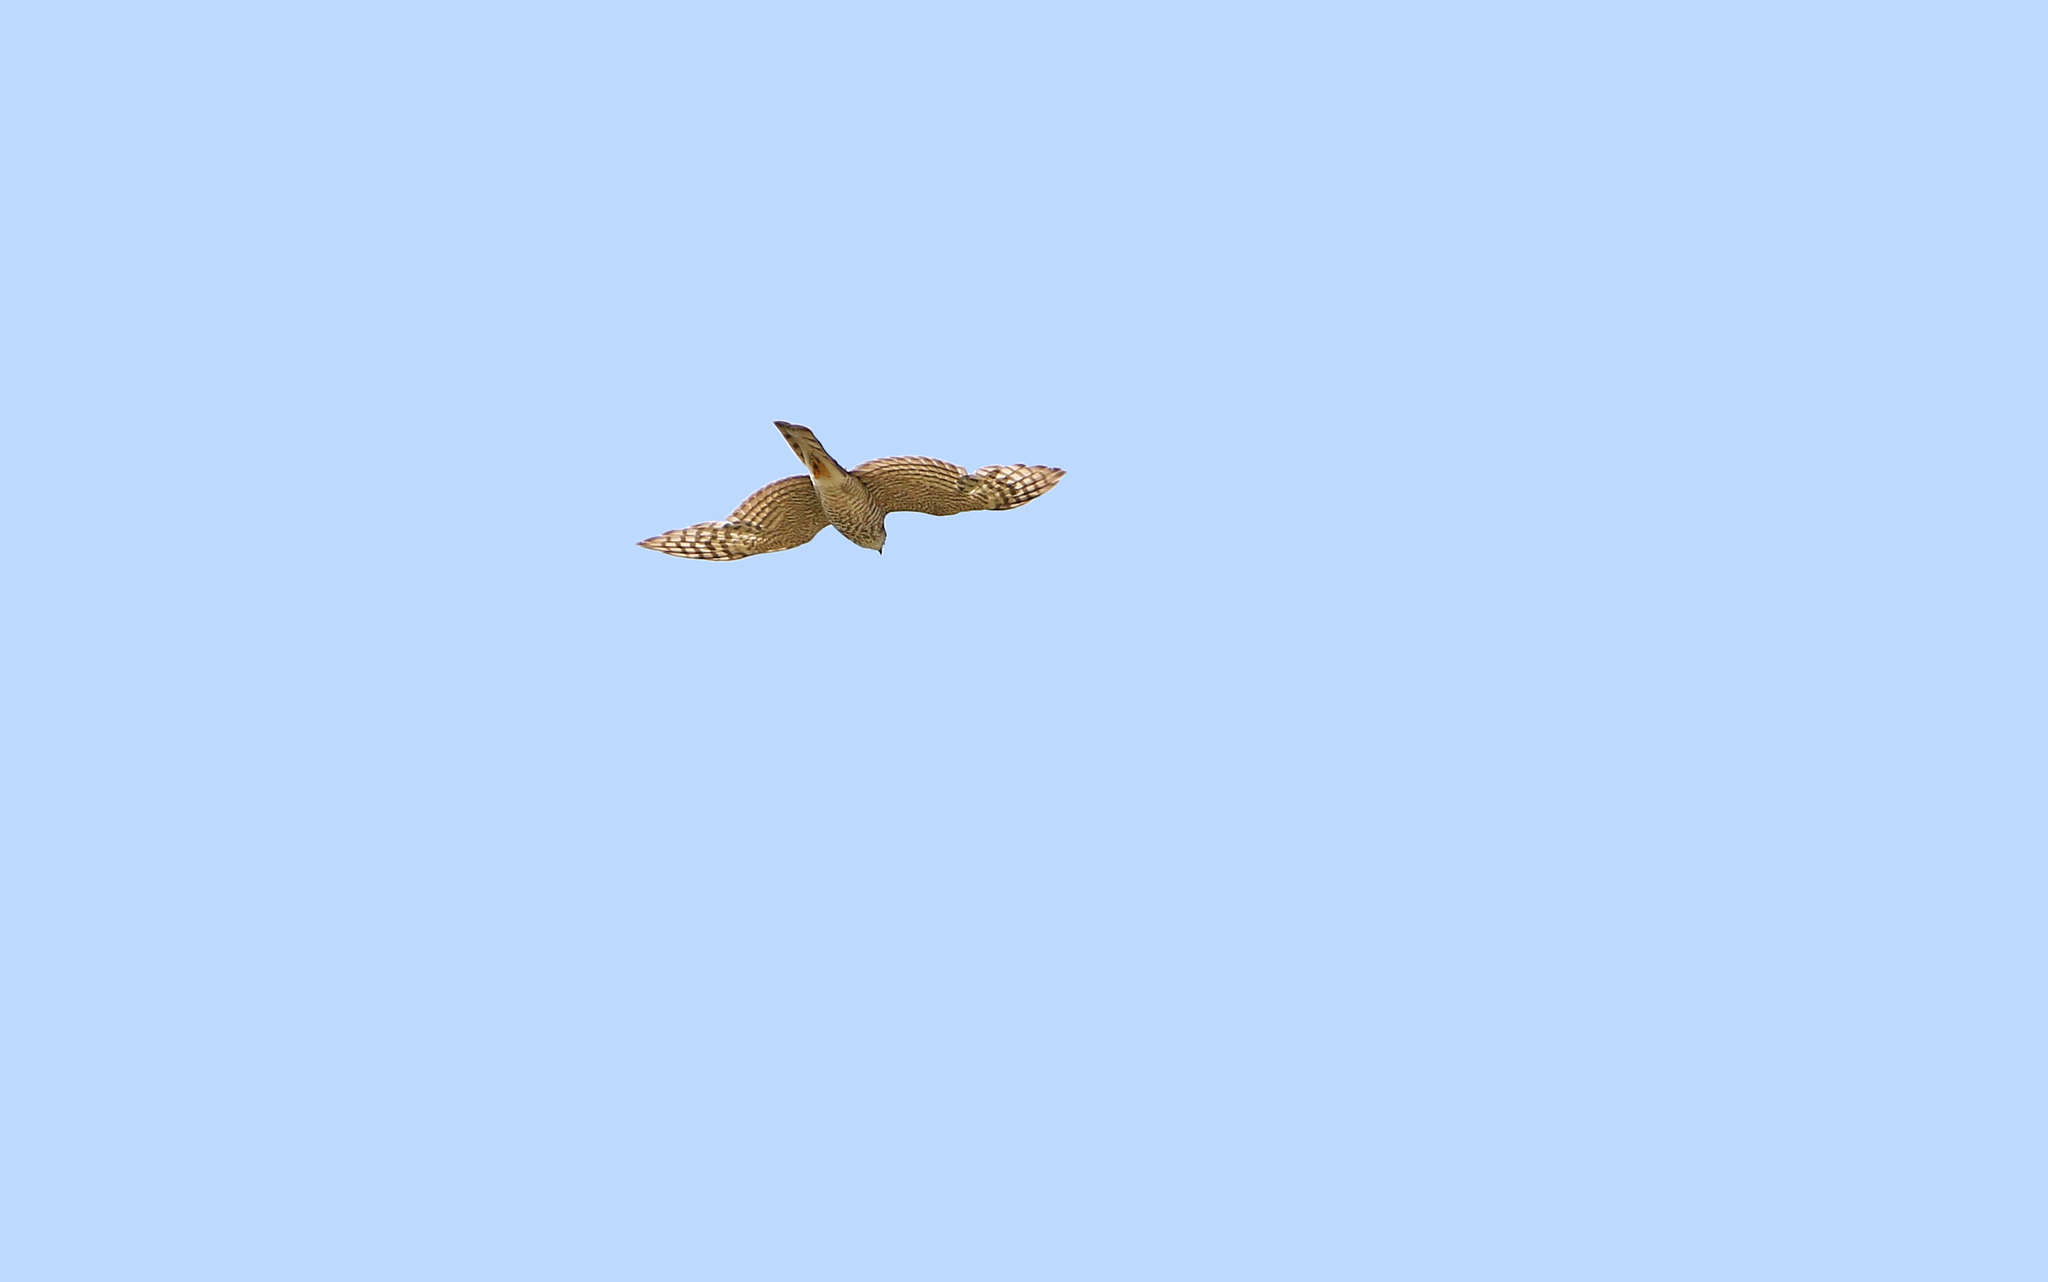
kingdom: Animalia
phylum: Chordata
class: Aves
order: Accipitriformes
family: Accipitridae
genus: Accipiter
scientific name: Accipiter nisus
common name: Eurasian sparrowhawk
